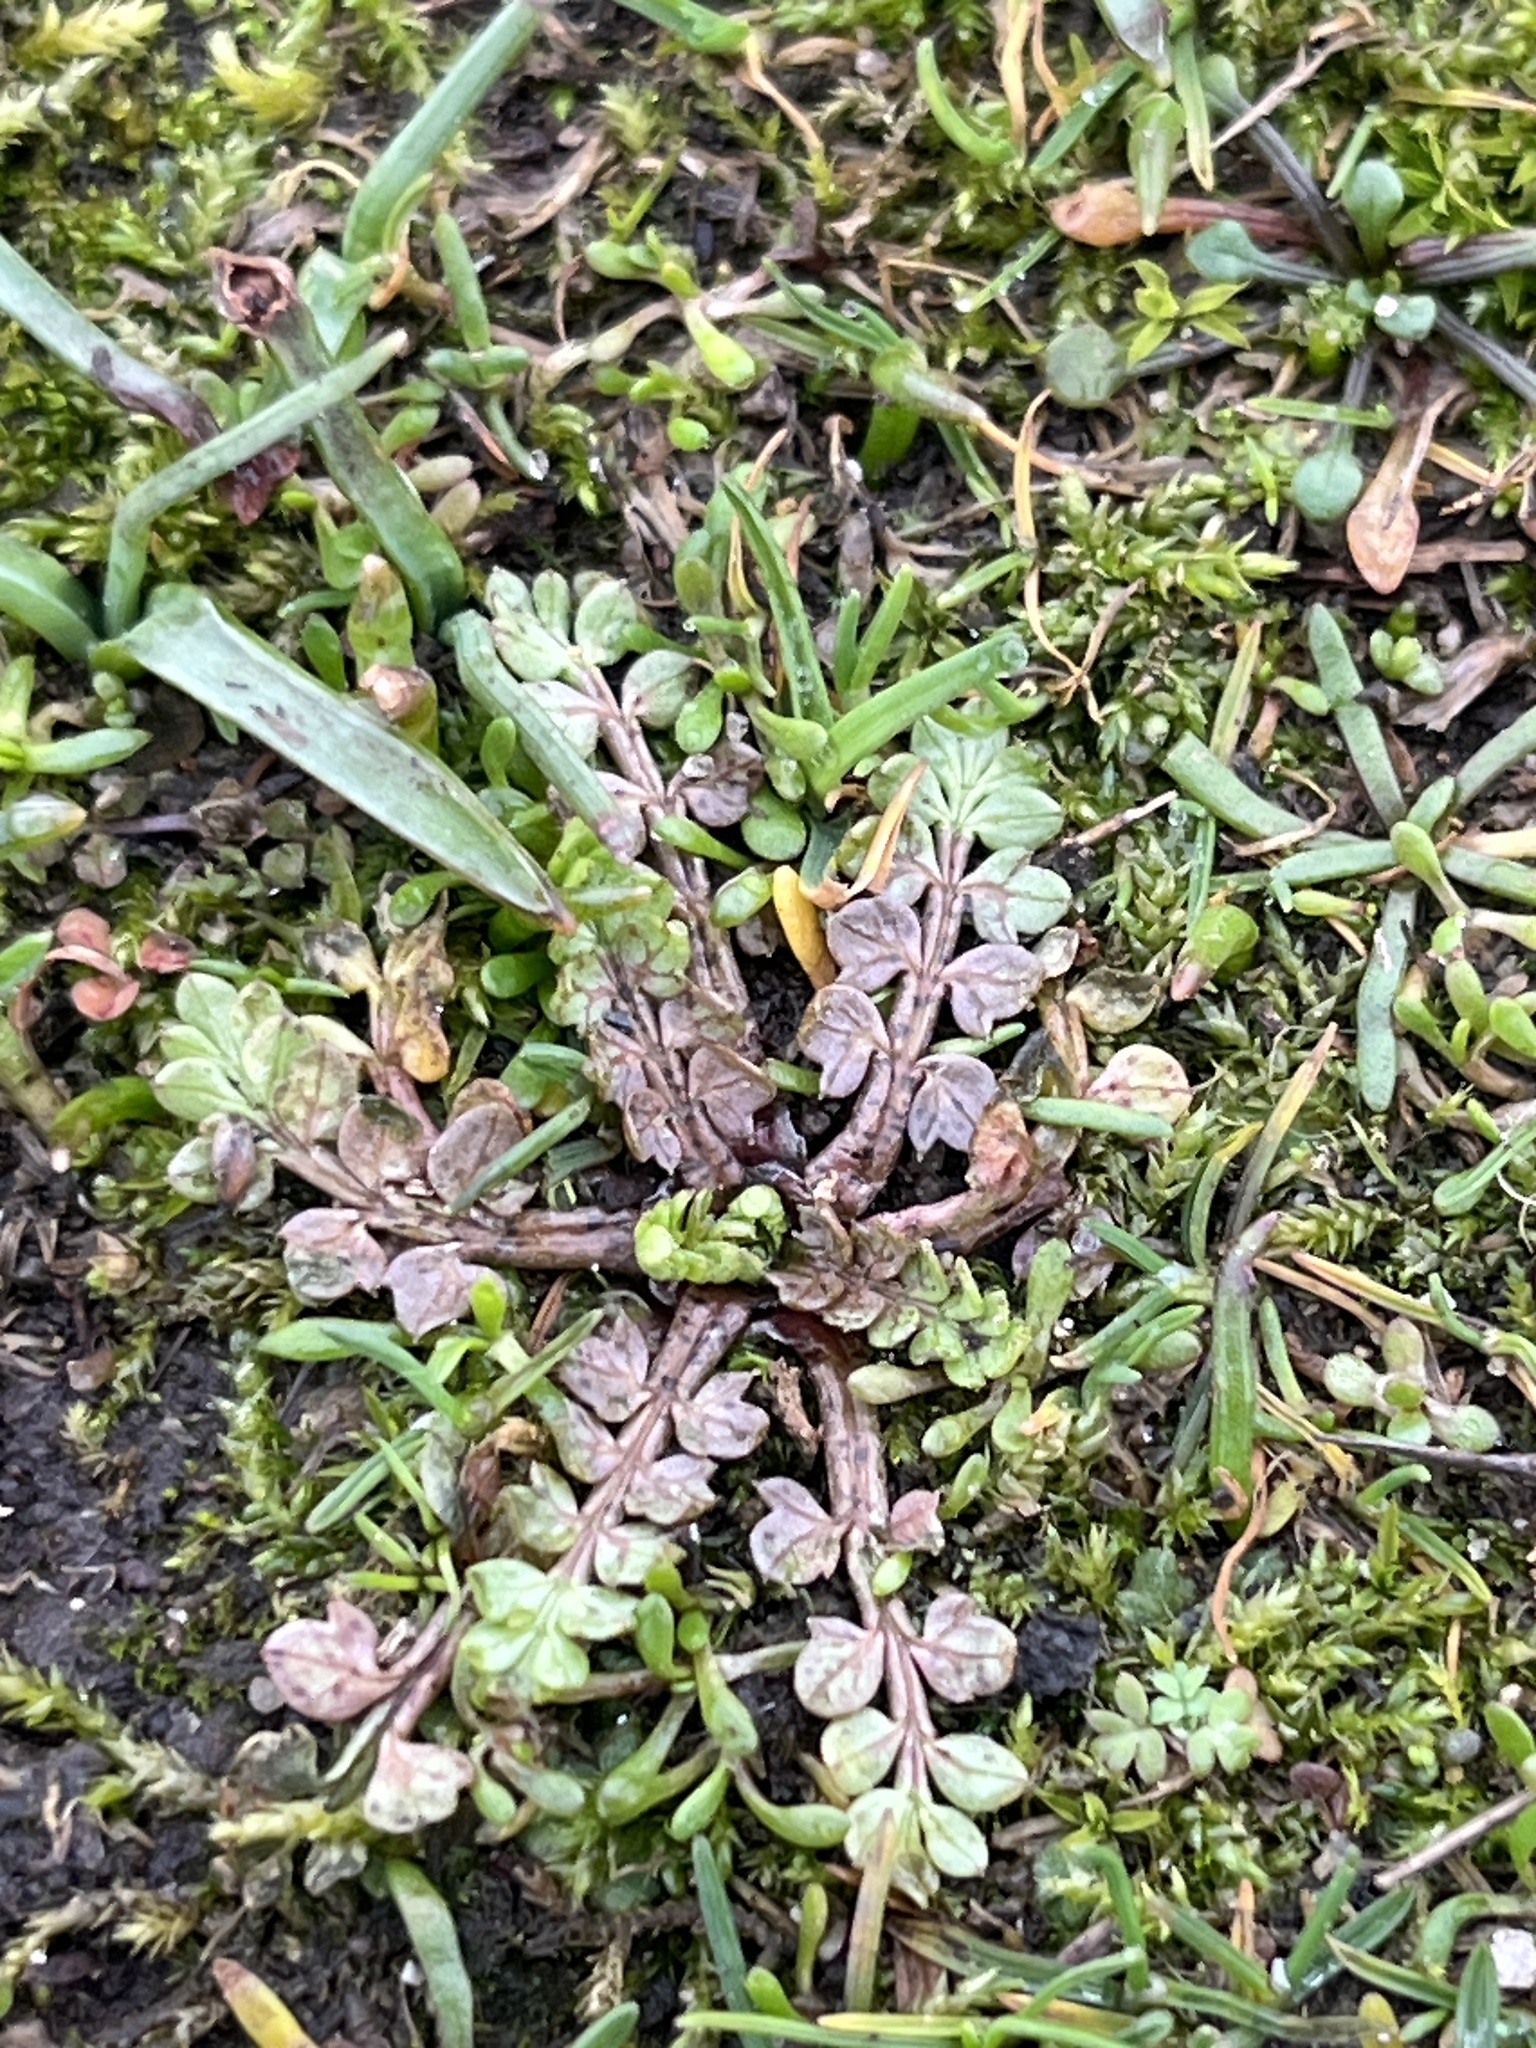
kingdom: Plantae
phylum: Tracheophyta
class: Magnoliopsida
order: Brassicales
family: Limnanthaceae
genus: Limnanthes
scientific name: Limnanthes macounii
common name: Macoun's meadowfoam
